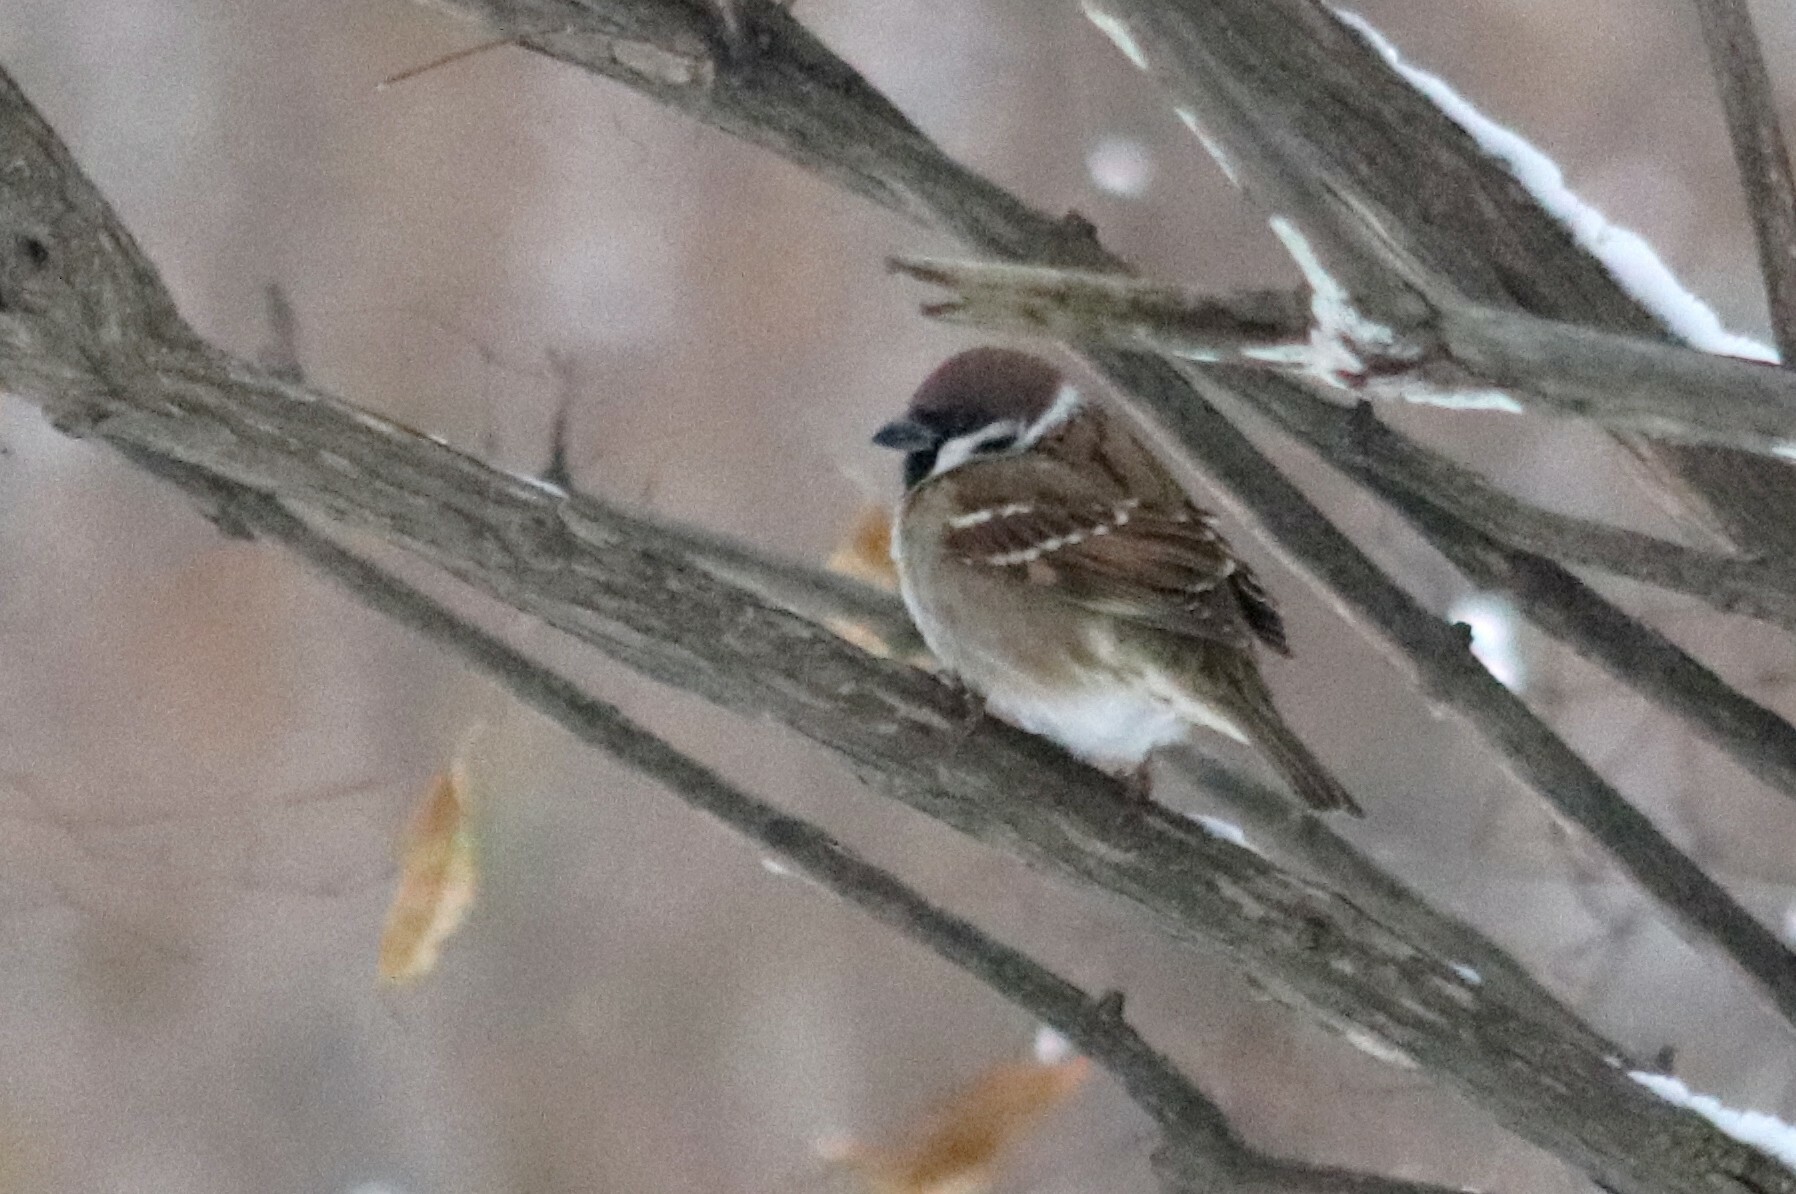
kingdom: Animalia
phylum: Chordata
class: Aves
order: Passeriformes
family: Passeridae
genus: Passer
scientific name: Passer montanus
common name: Eurasian tree sparrow
